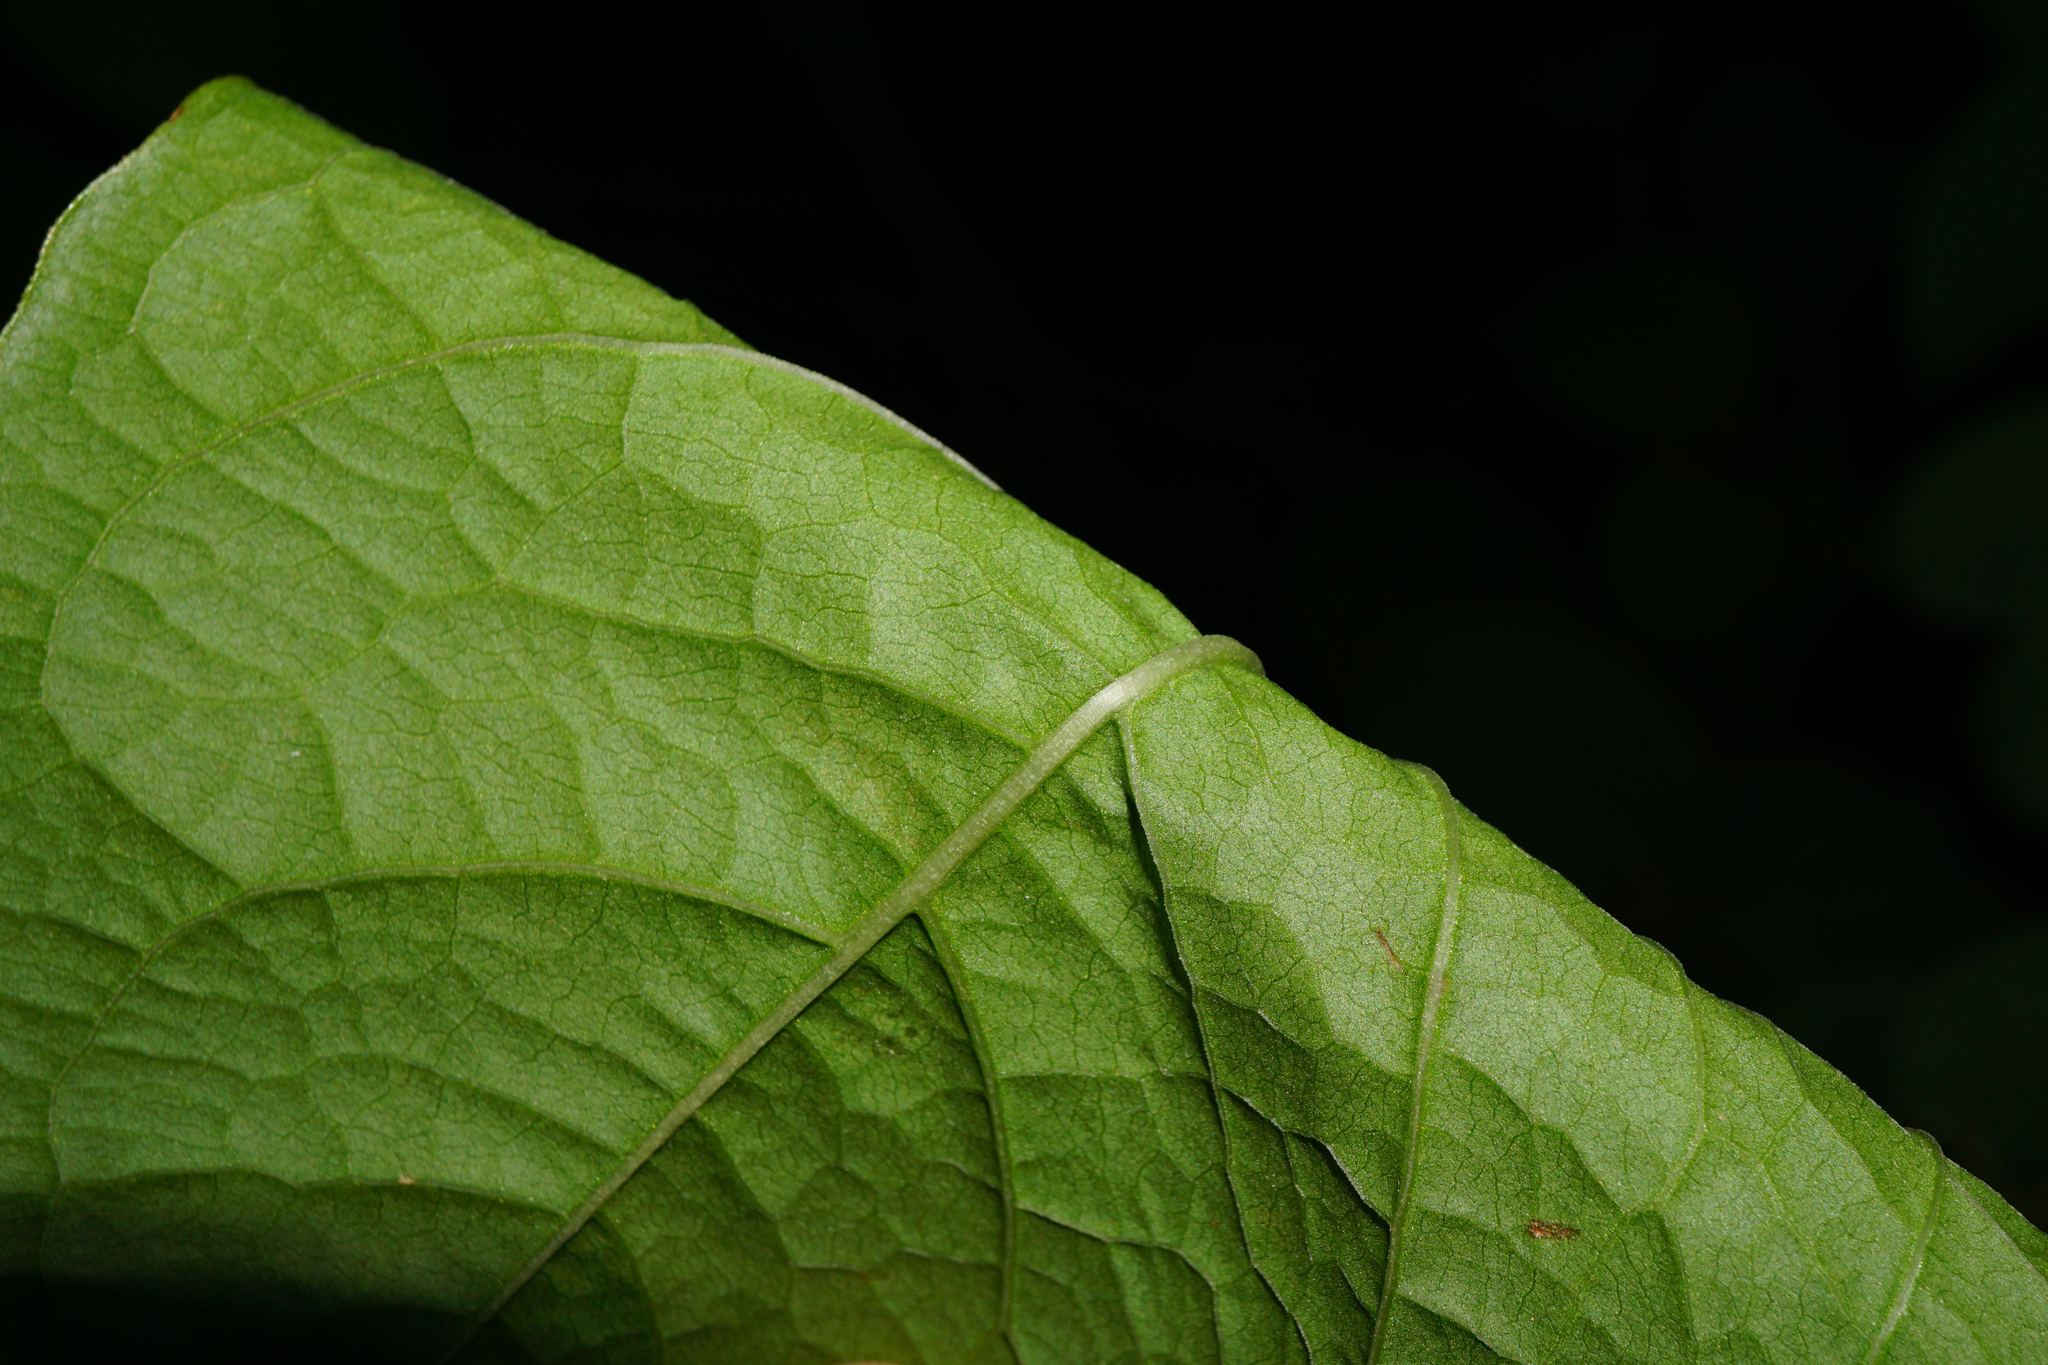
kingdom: Plantae
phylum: Tracheophyta
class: Magnoliopsida
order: Caryophyllales
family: Polygonaceae
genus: Reynoutria
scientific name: Reynoutria japonica
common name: Japanese knotweed
